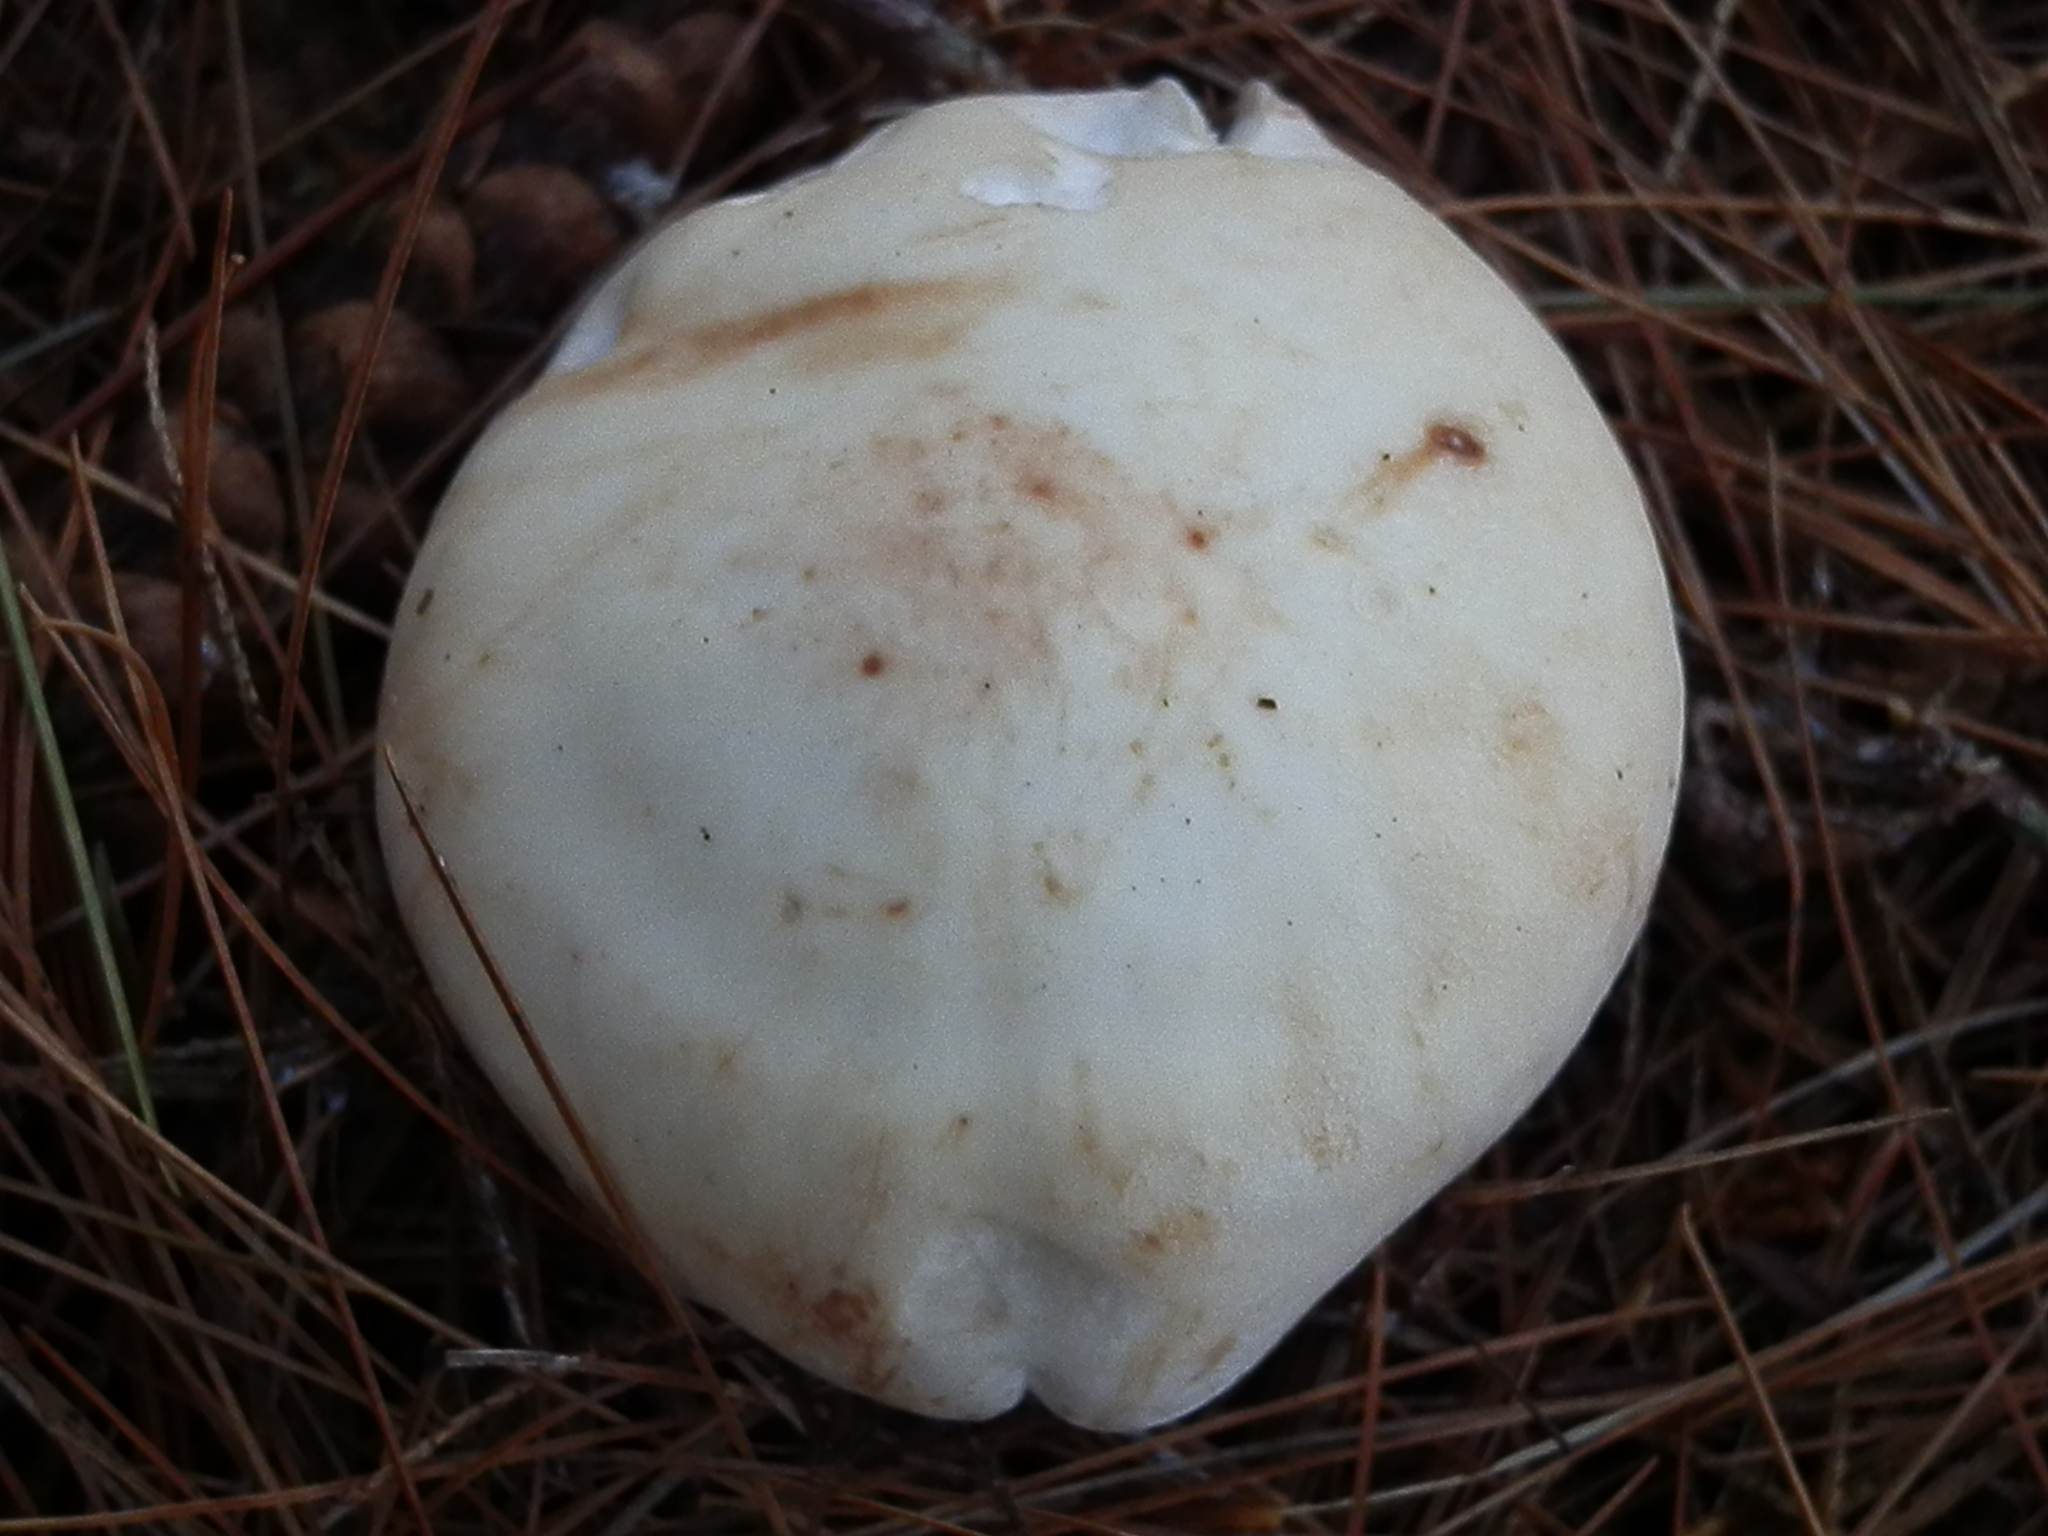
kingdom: Fungi
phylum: Basidiomycota
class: Agaricomycetes
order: Agaricales
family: Omphalotaceae
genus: Rhodocollybia
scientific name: Rhodocollybia maculata
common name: Spotted tough-shank
